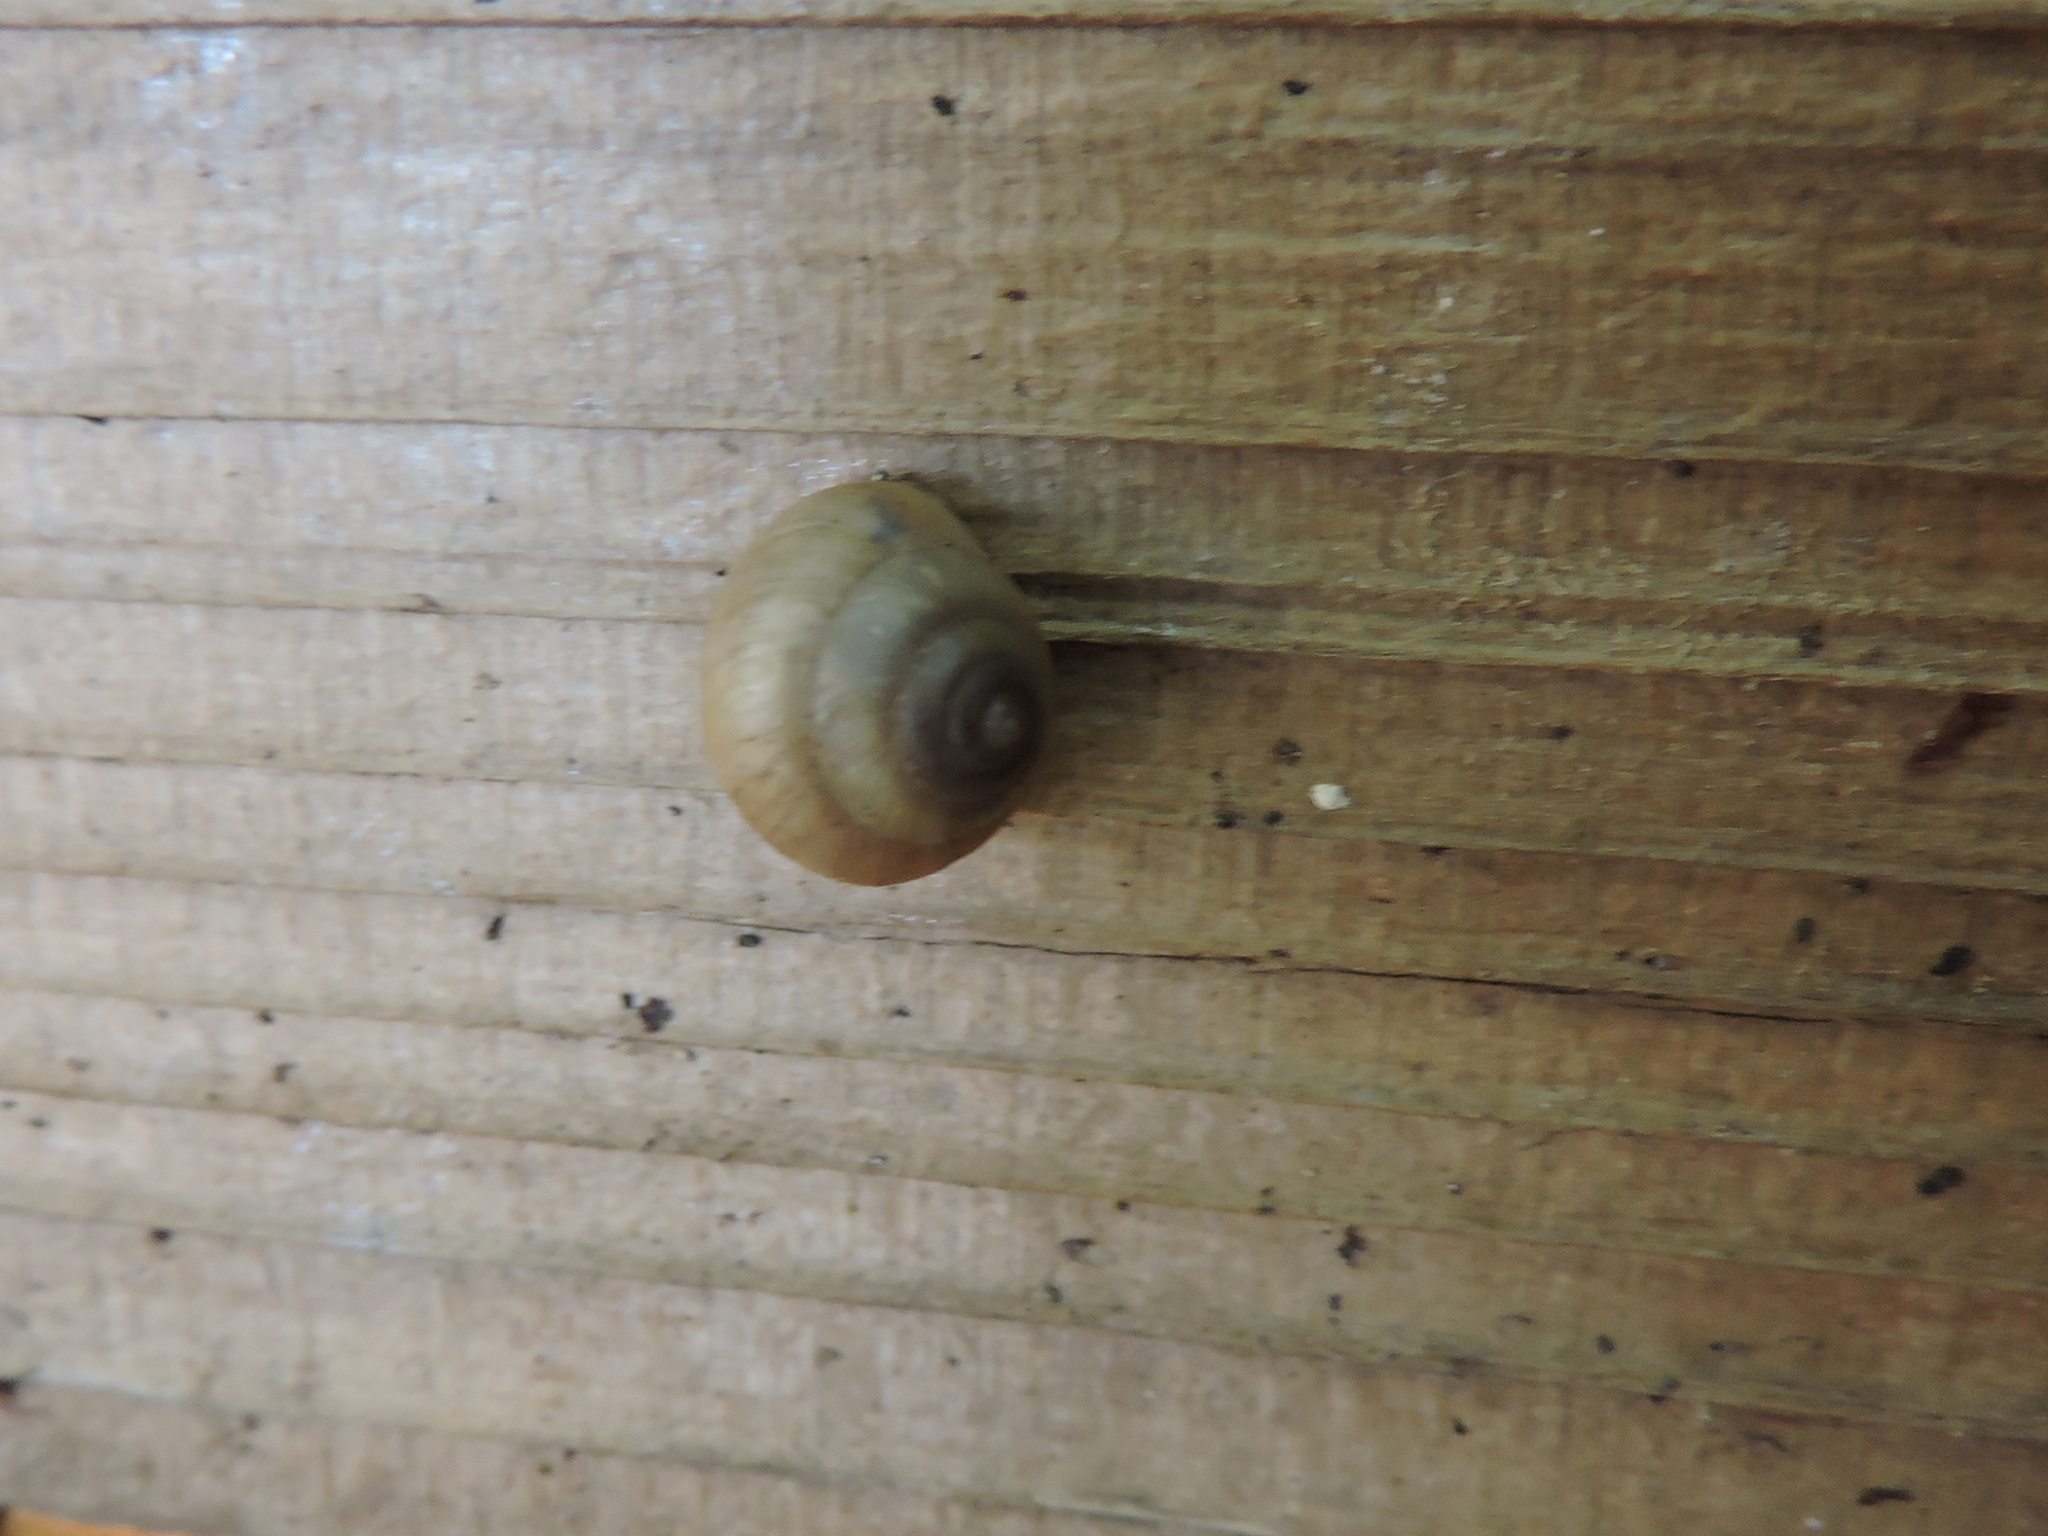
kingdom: Animalia
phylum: Mollusca
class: Gastropoda
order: Stylommatophora
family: Gastrodontidae
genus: Ventridens
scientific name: Ventridens demissus
